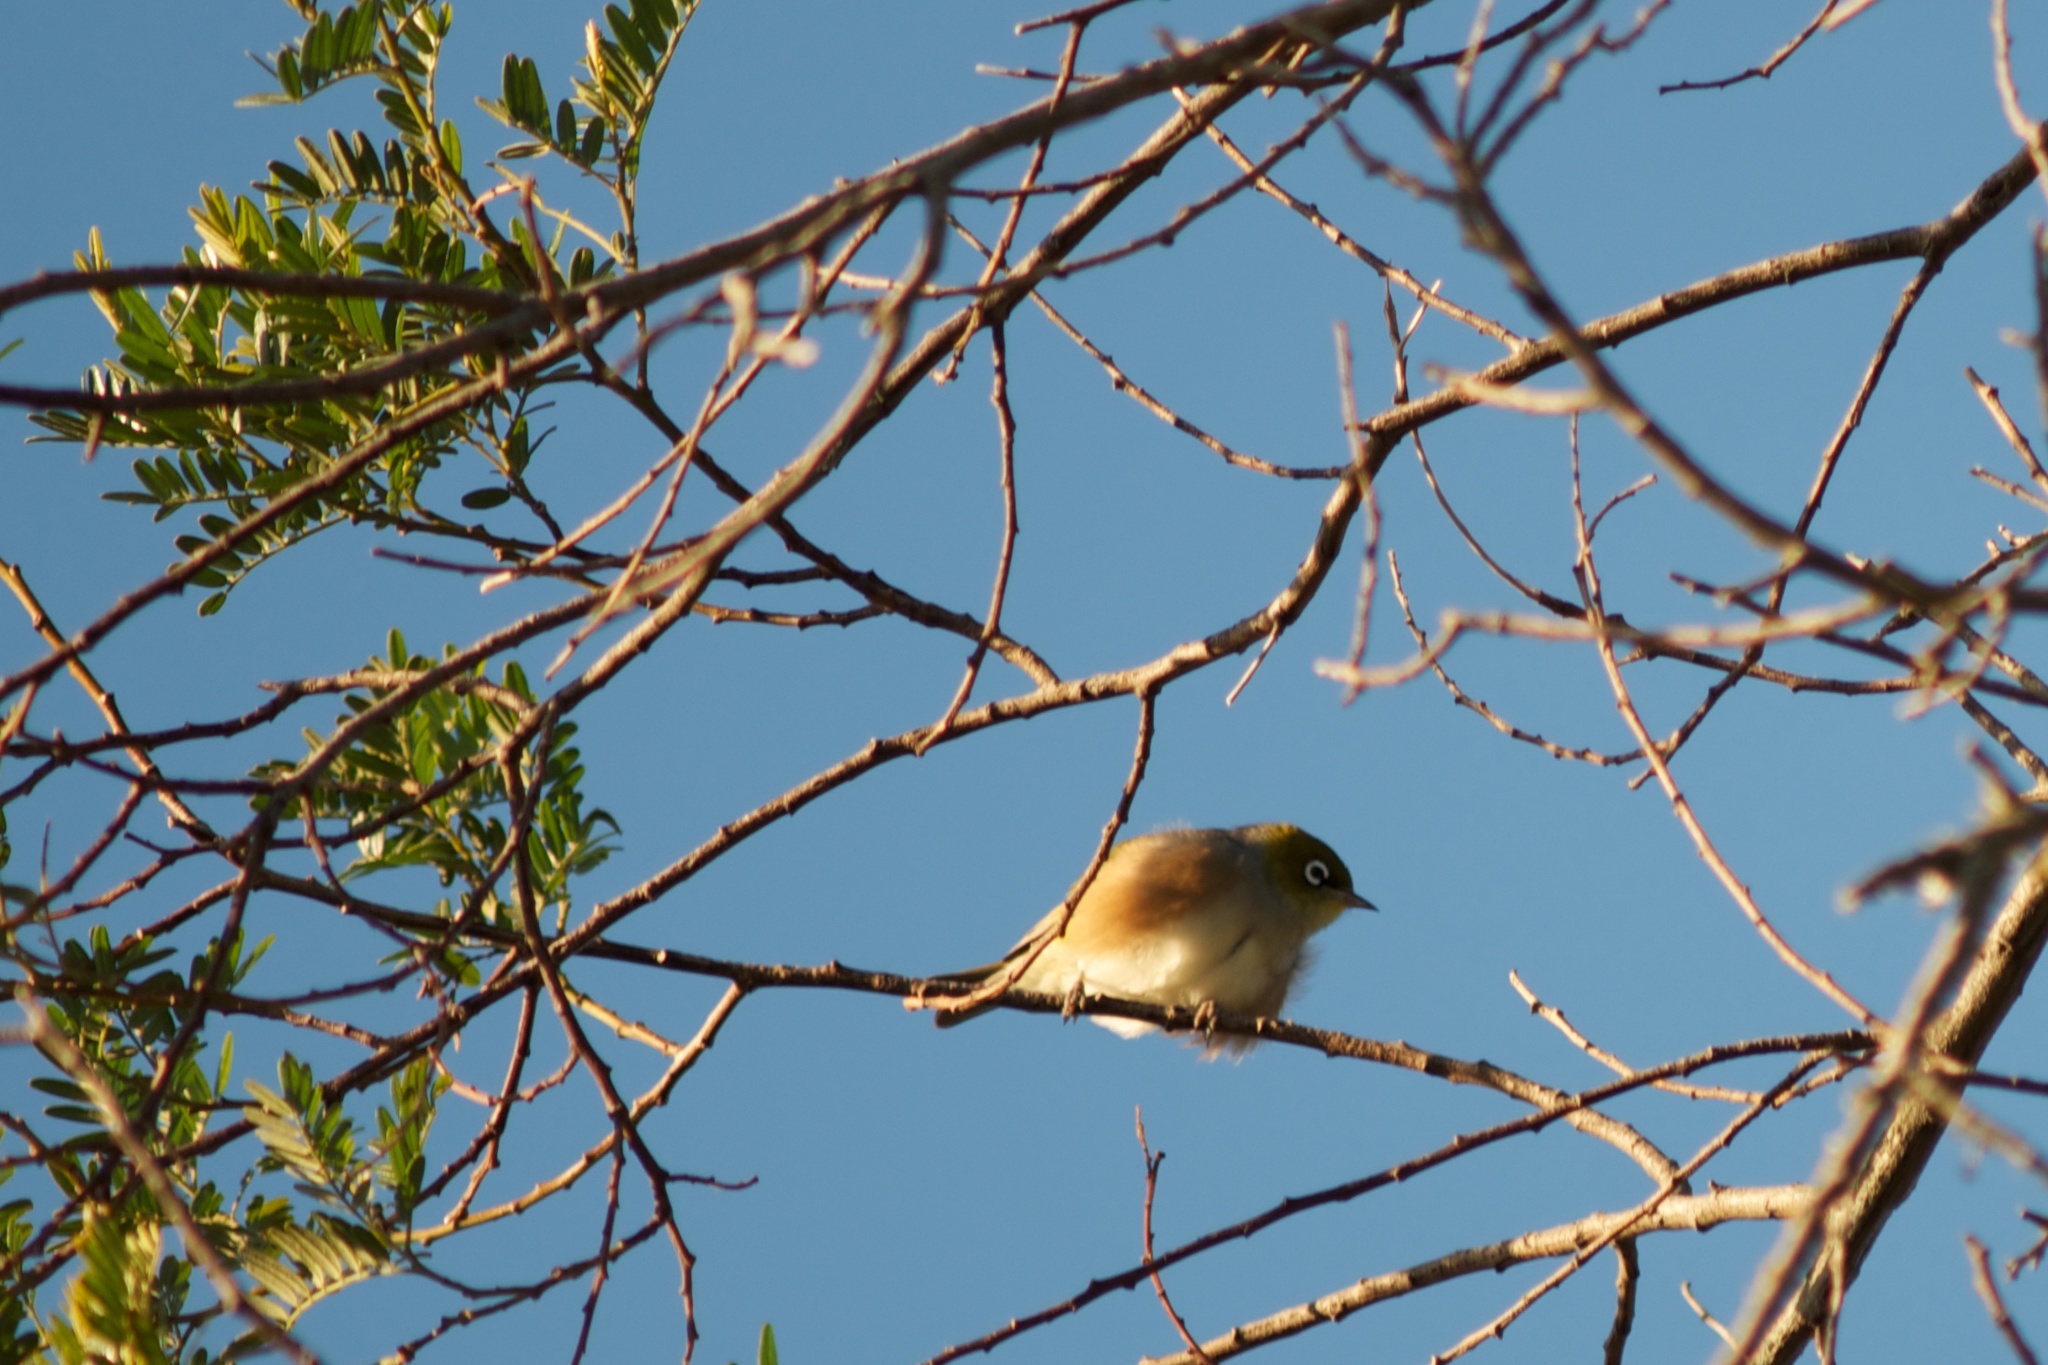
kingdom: Animalia
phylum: Chordata
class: Aves
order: Passeriformes
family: Zosteropidae
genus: Zosterops
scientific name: Zosterops lateralis
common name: Silvereye
